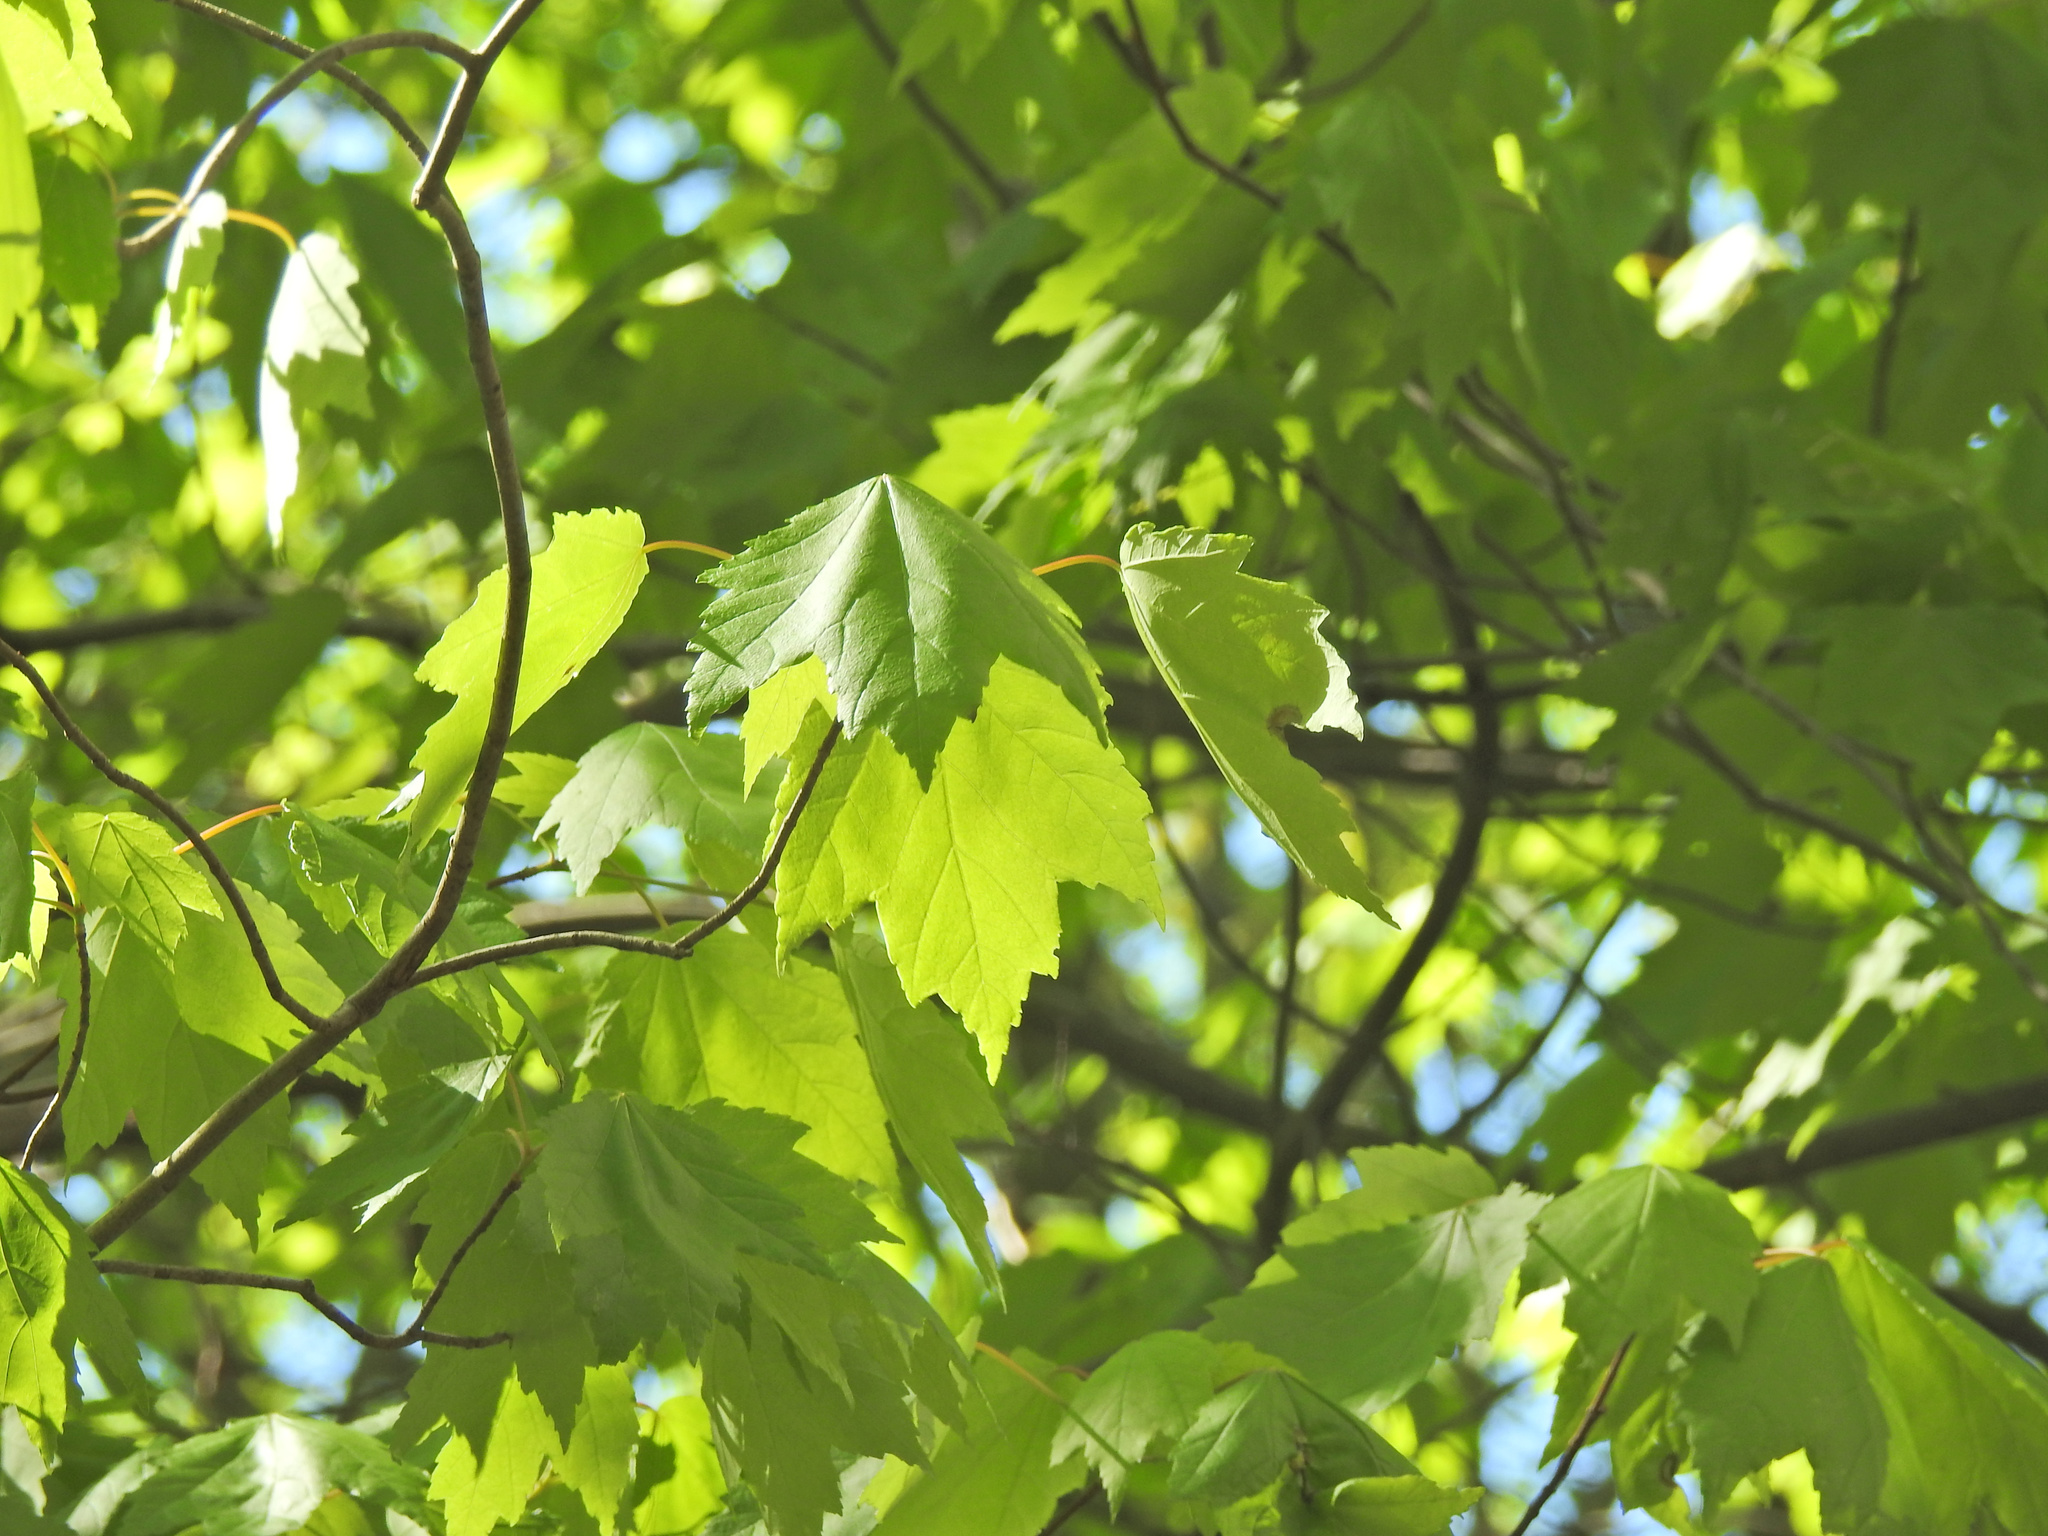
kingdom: Plantae
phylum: Tracheophyta
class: Magnoliopsida
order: Sapindales
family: Sapindaceae
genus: Acer
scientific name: Acer rubrum
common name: Red maple
